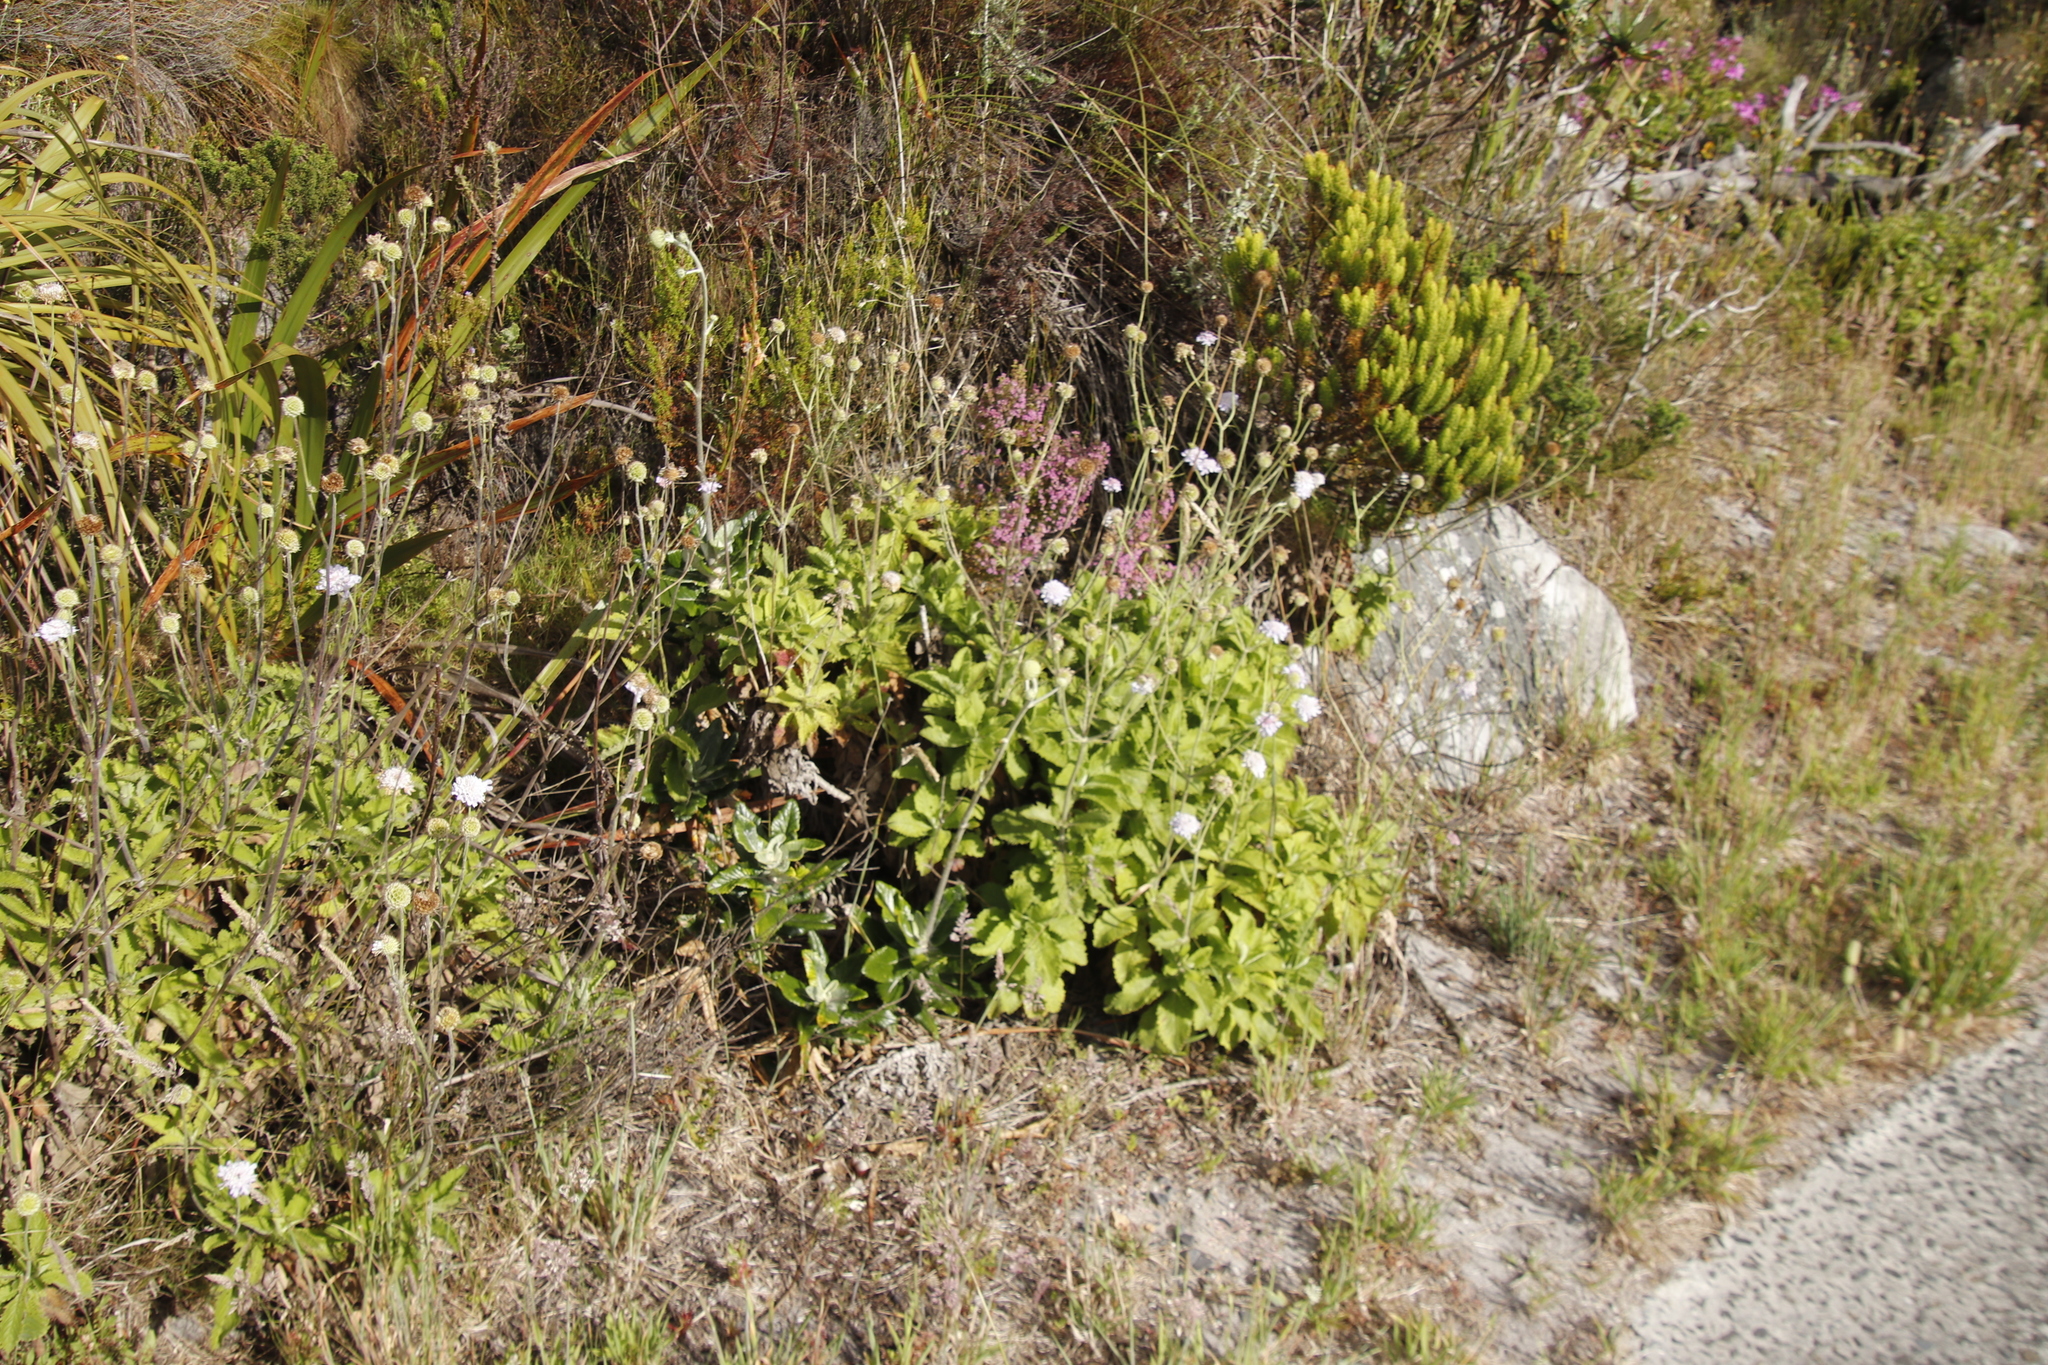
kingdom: Plantae
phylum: Tracheophyta
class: Magnoliopsida
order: Dipsacales
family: Caprifoliaceae
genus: Scabiosa
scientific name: Scabiosa africana
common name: Cape scabious
